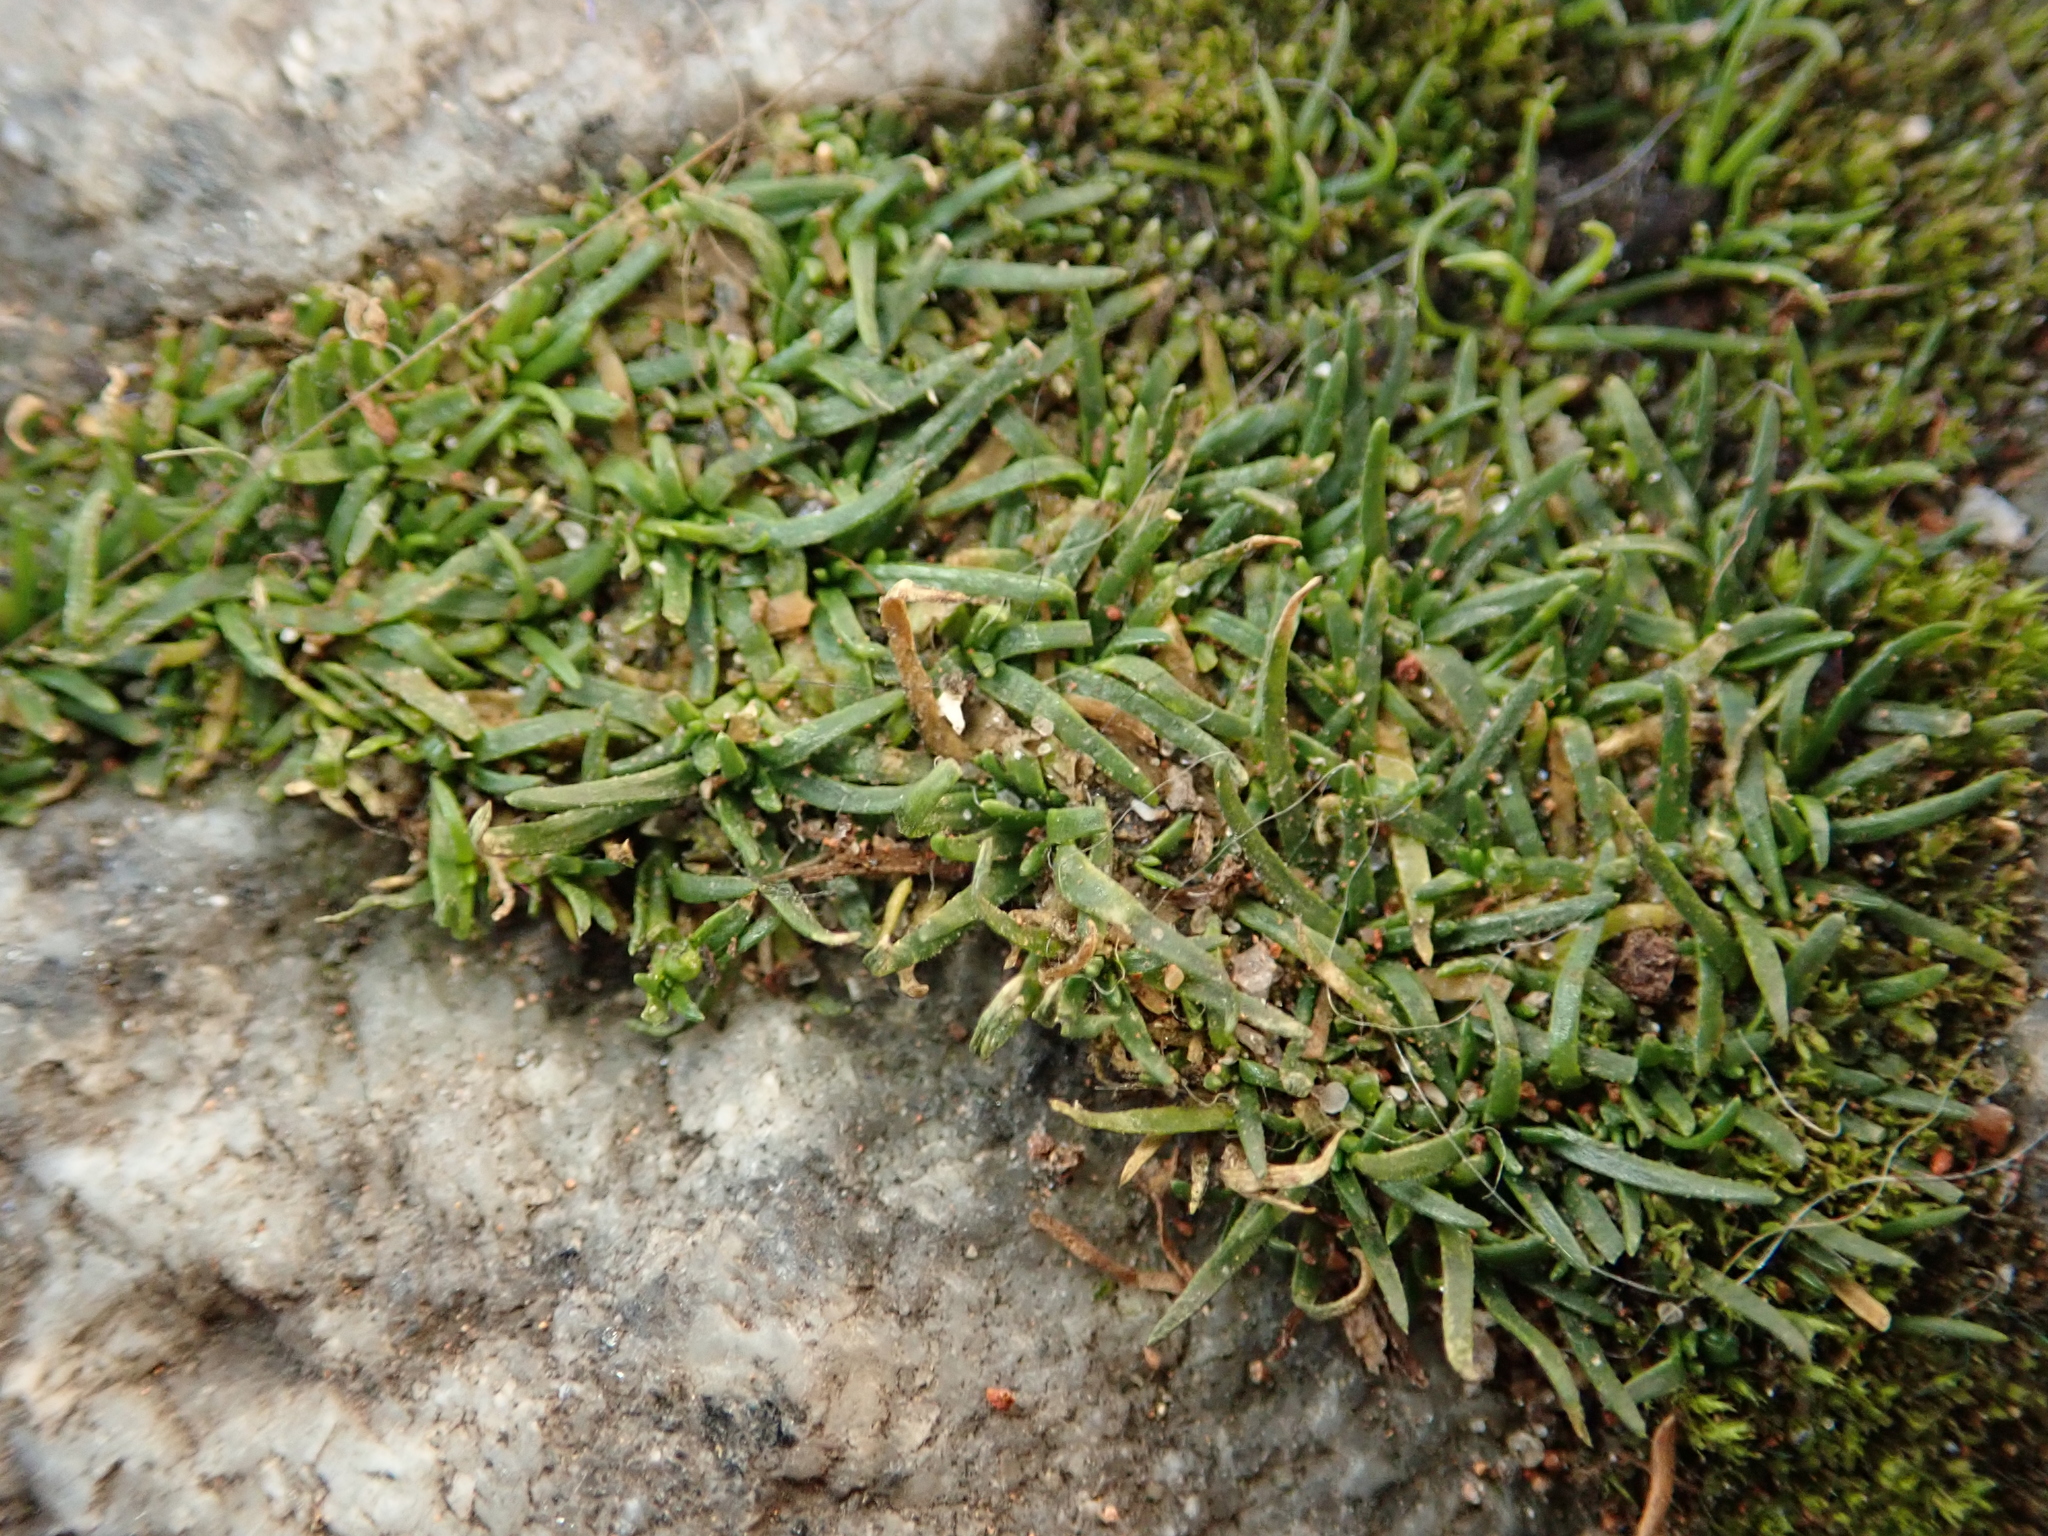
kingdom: Plantae
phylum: Tracheophyta
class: Magnoliopsida
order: Caryophyllales
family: Caryophyllaceae
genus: Sagina
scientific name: Sagina procumbens
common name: Procumbent pearlwort
